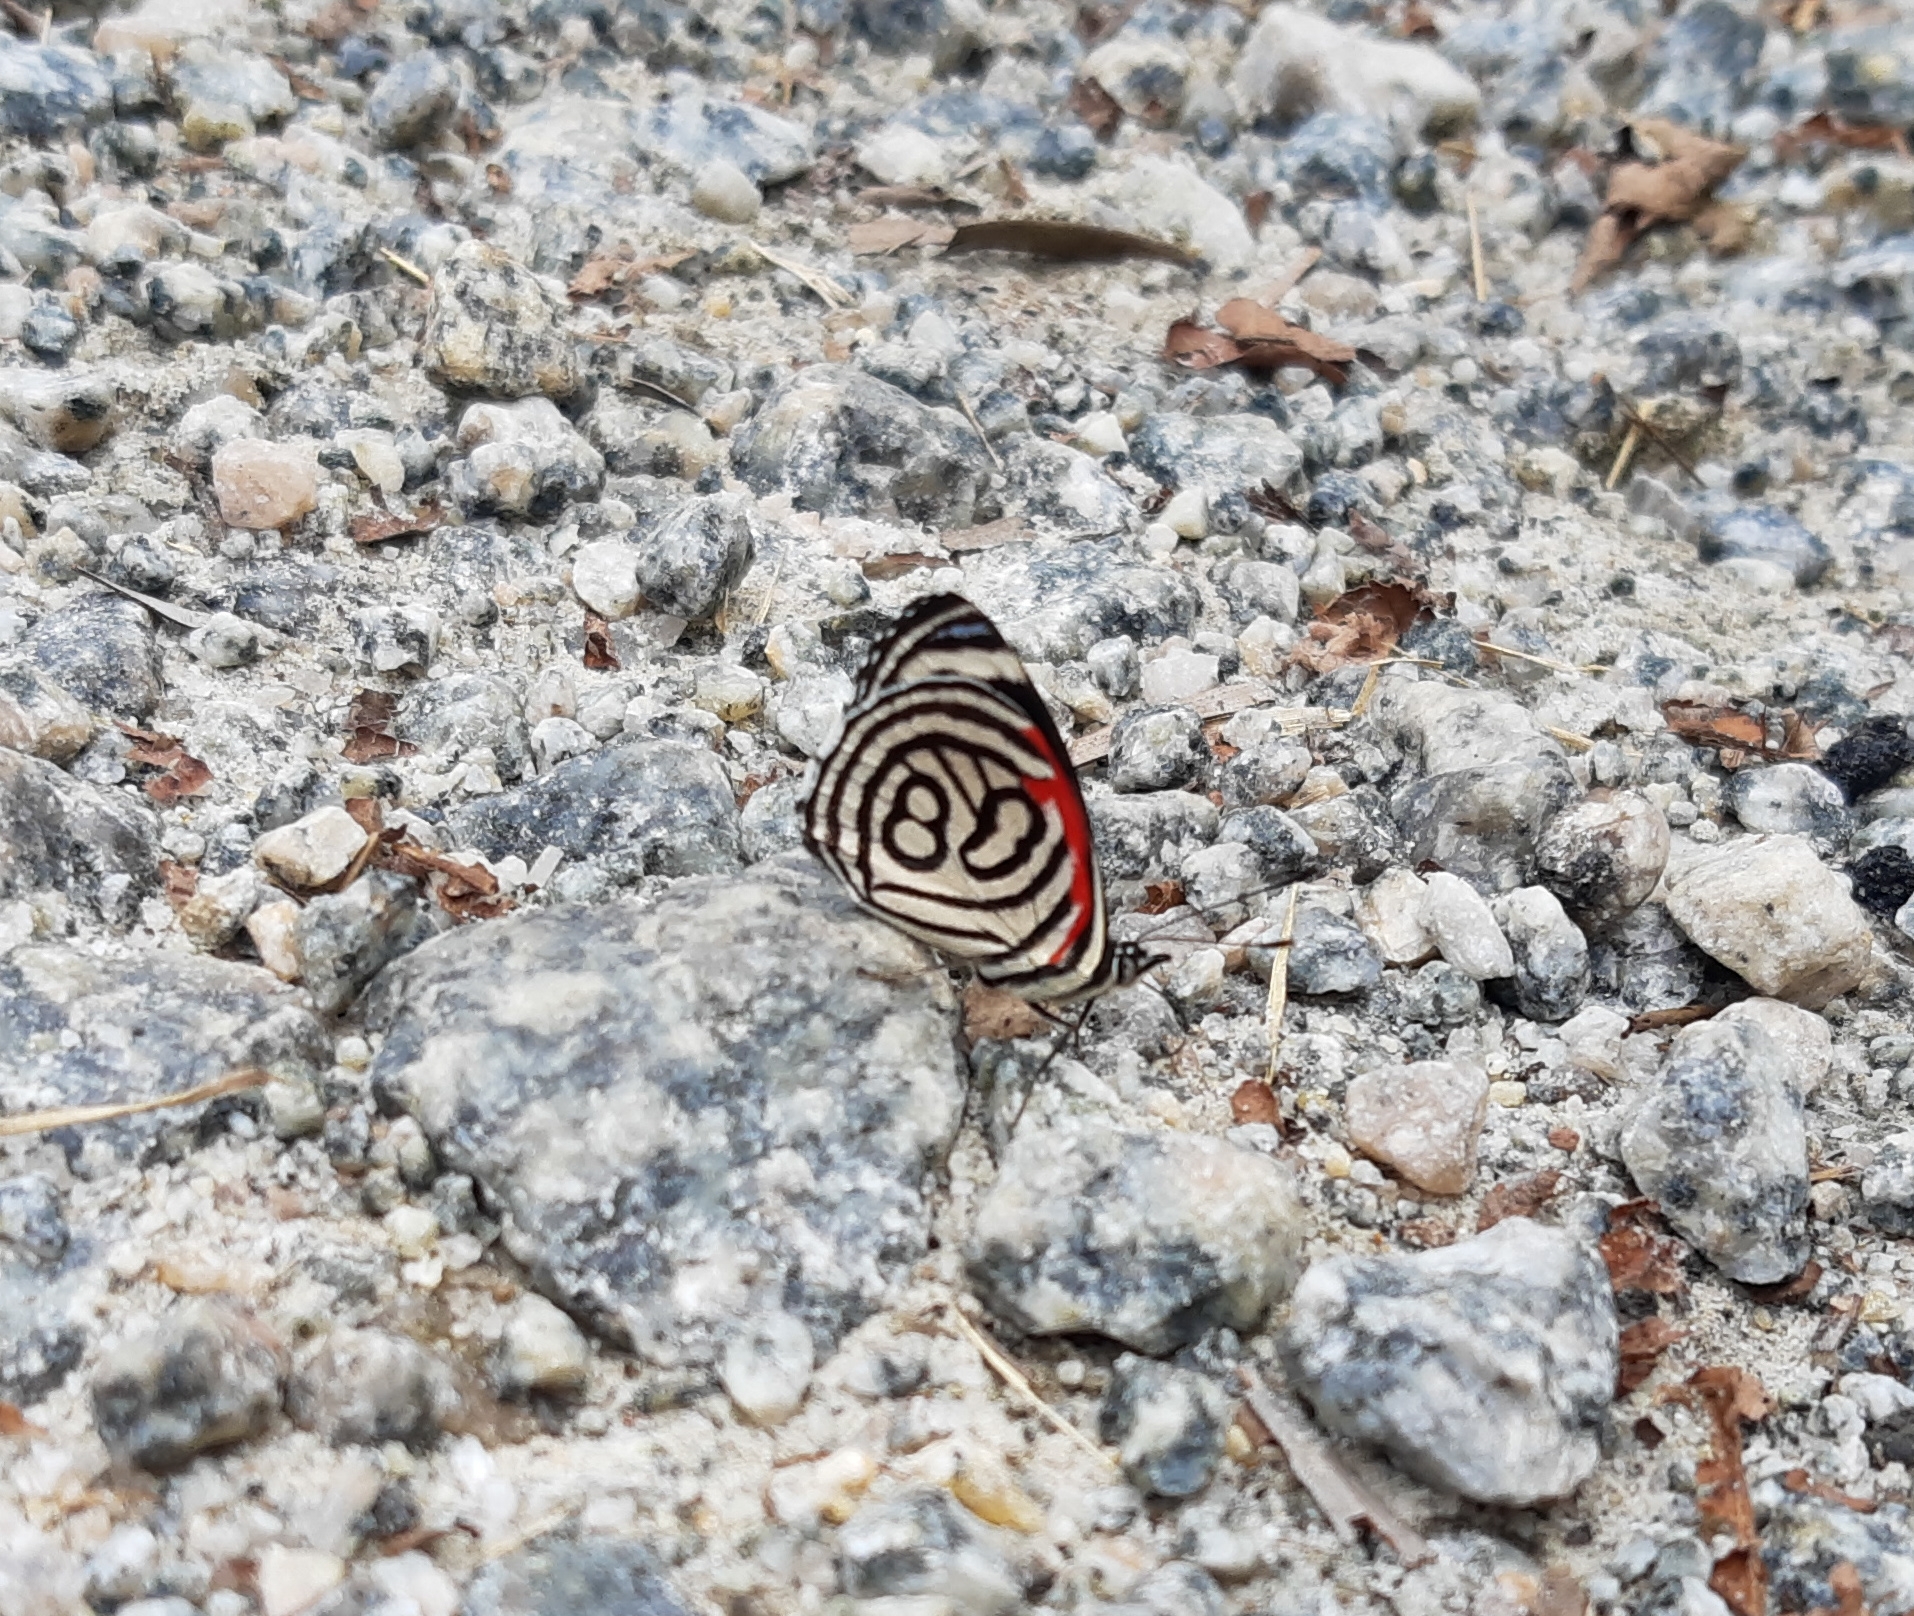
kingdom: Animalia
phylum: Arthropoda
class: Insecta
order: Lepidoptera
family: Nymphalidae
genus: Diaethria
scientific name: Diaethria candrena
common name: Number eighty
